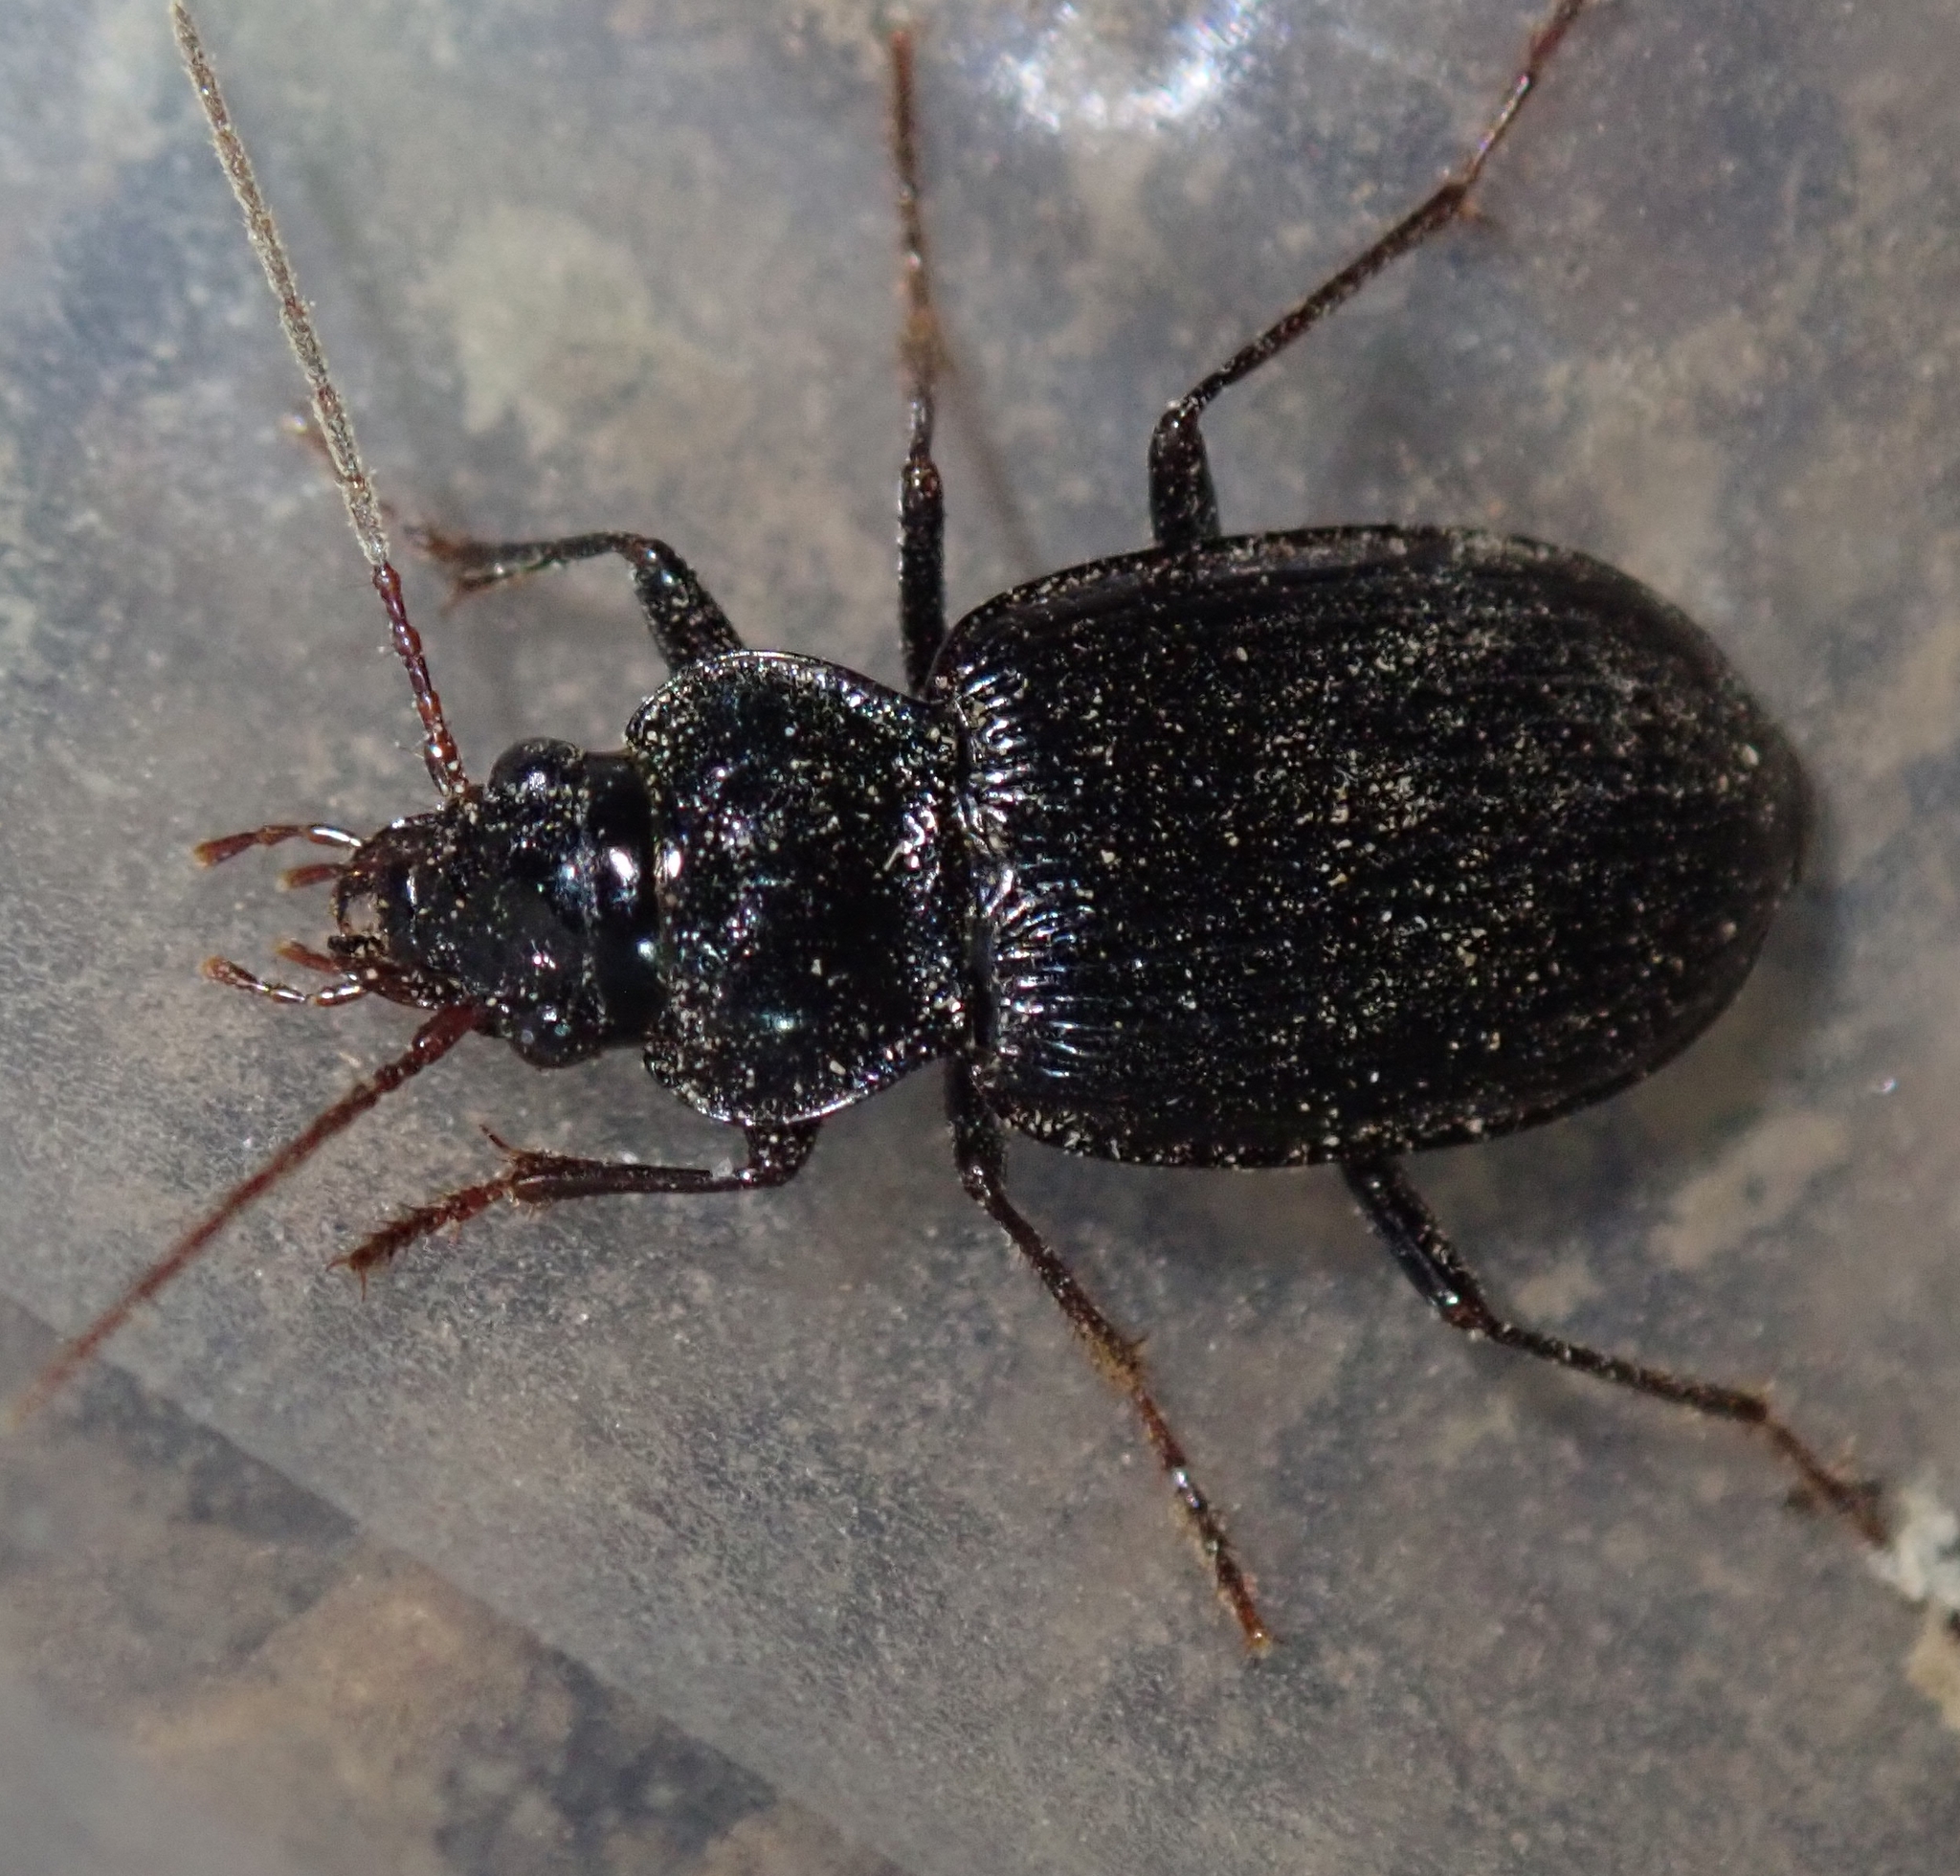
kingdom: Animalia
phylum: Arthropoda
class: Insecta
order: Coleoptera
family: Carabidae
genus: Nebria
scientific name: Nebria brevicollis
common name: Short-necked gazelle beetle
